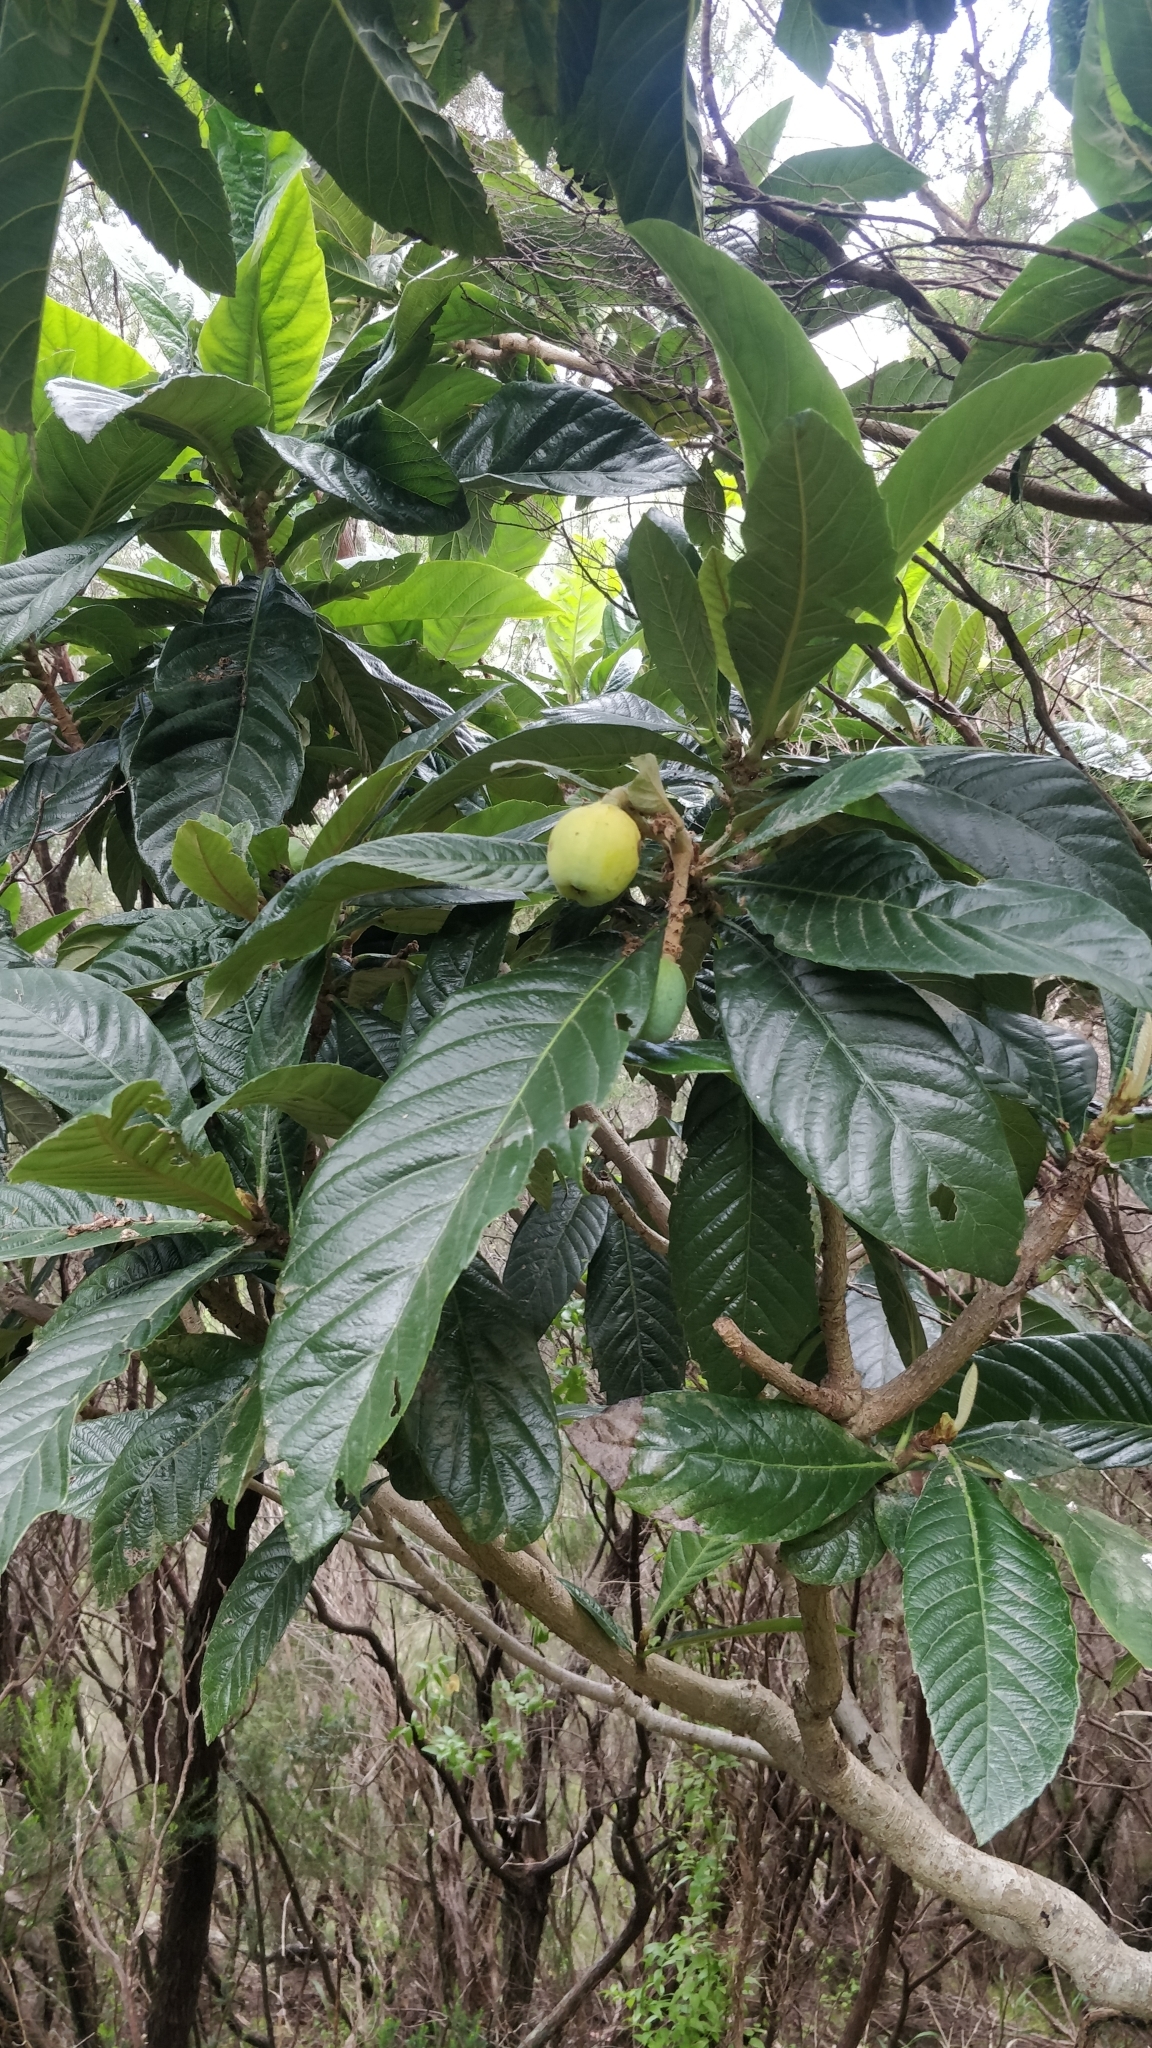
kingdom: Plantae
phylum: Tracheophyta
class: Magnoliopsida
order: Rosales
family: Rosaceae
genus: Rhaphiolepis
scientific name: Rhaphiolepis bibas
